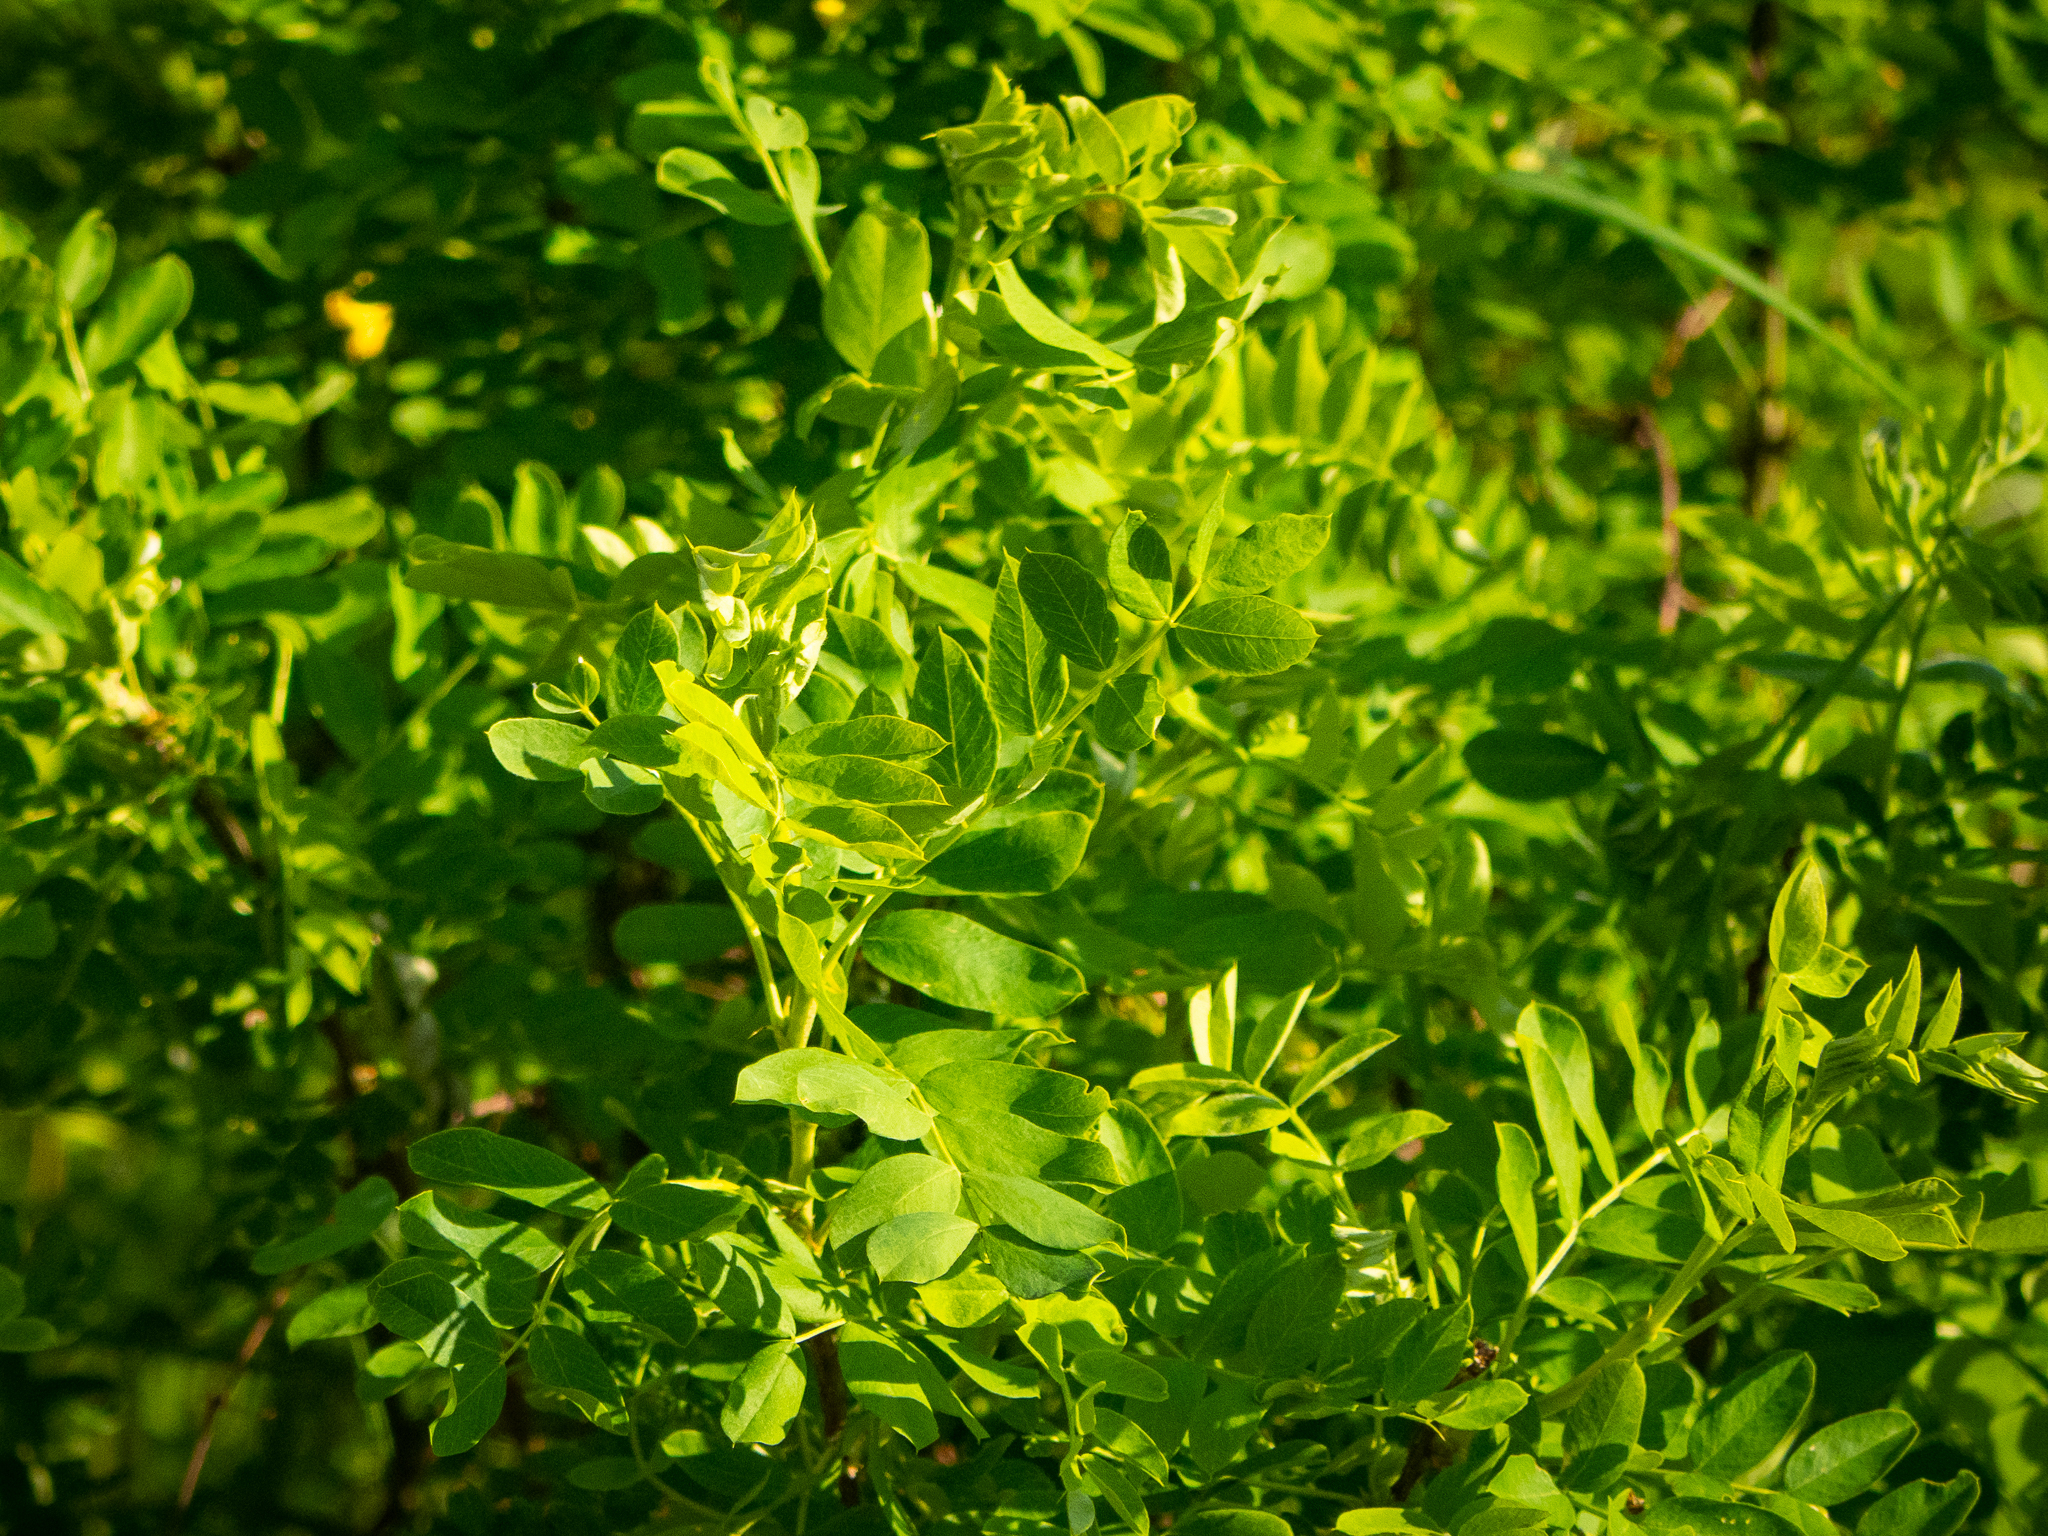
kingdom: Plantae
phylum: Tracheophyta
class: Magnoliopsida
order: Fabales
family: Fabaceae
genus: Caragana
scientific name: Caragana arborescens
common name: Siberian peashrub
